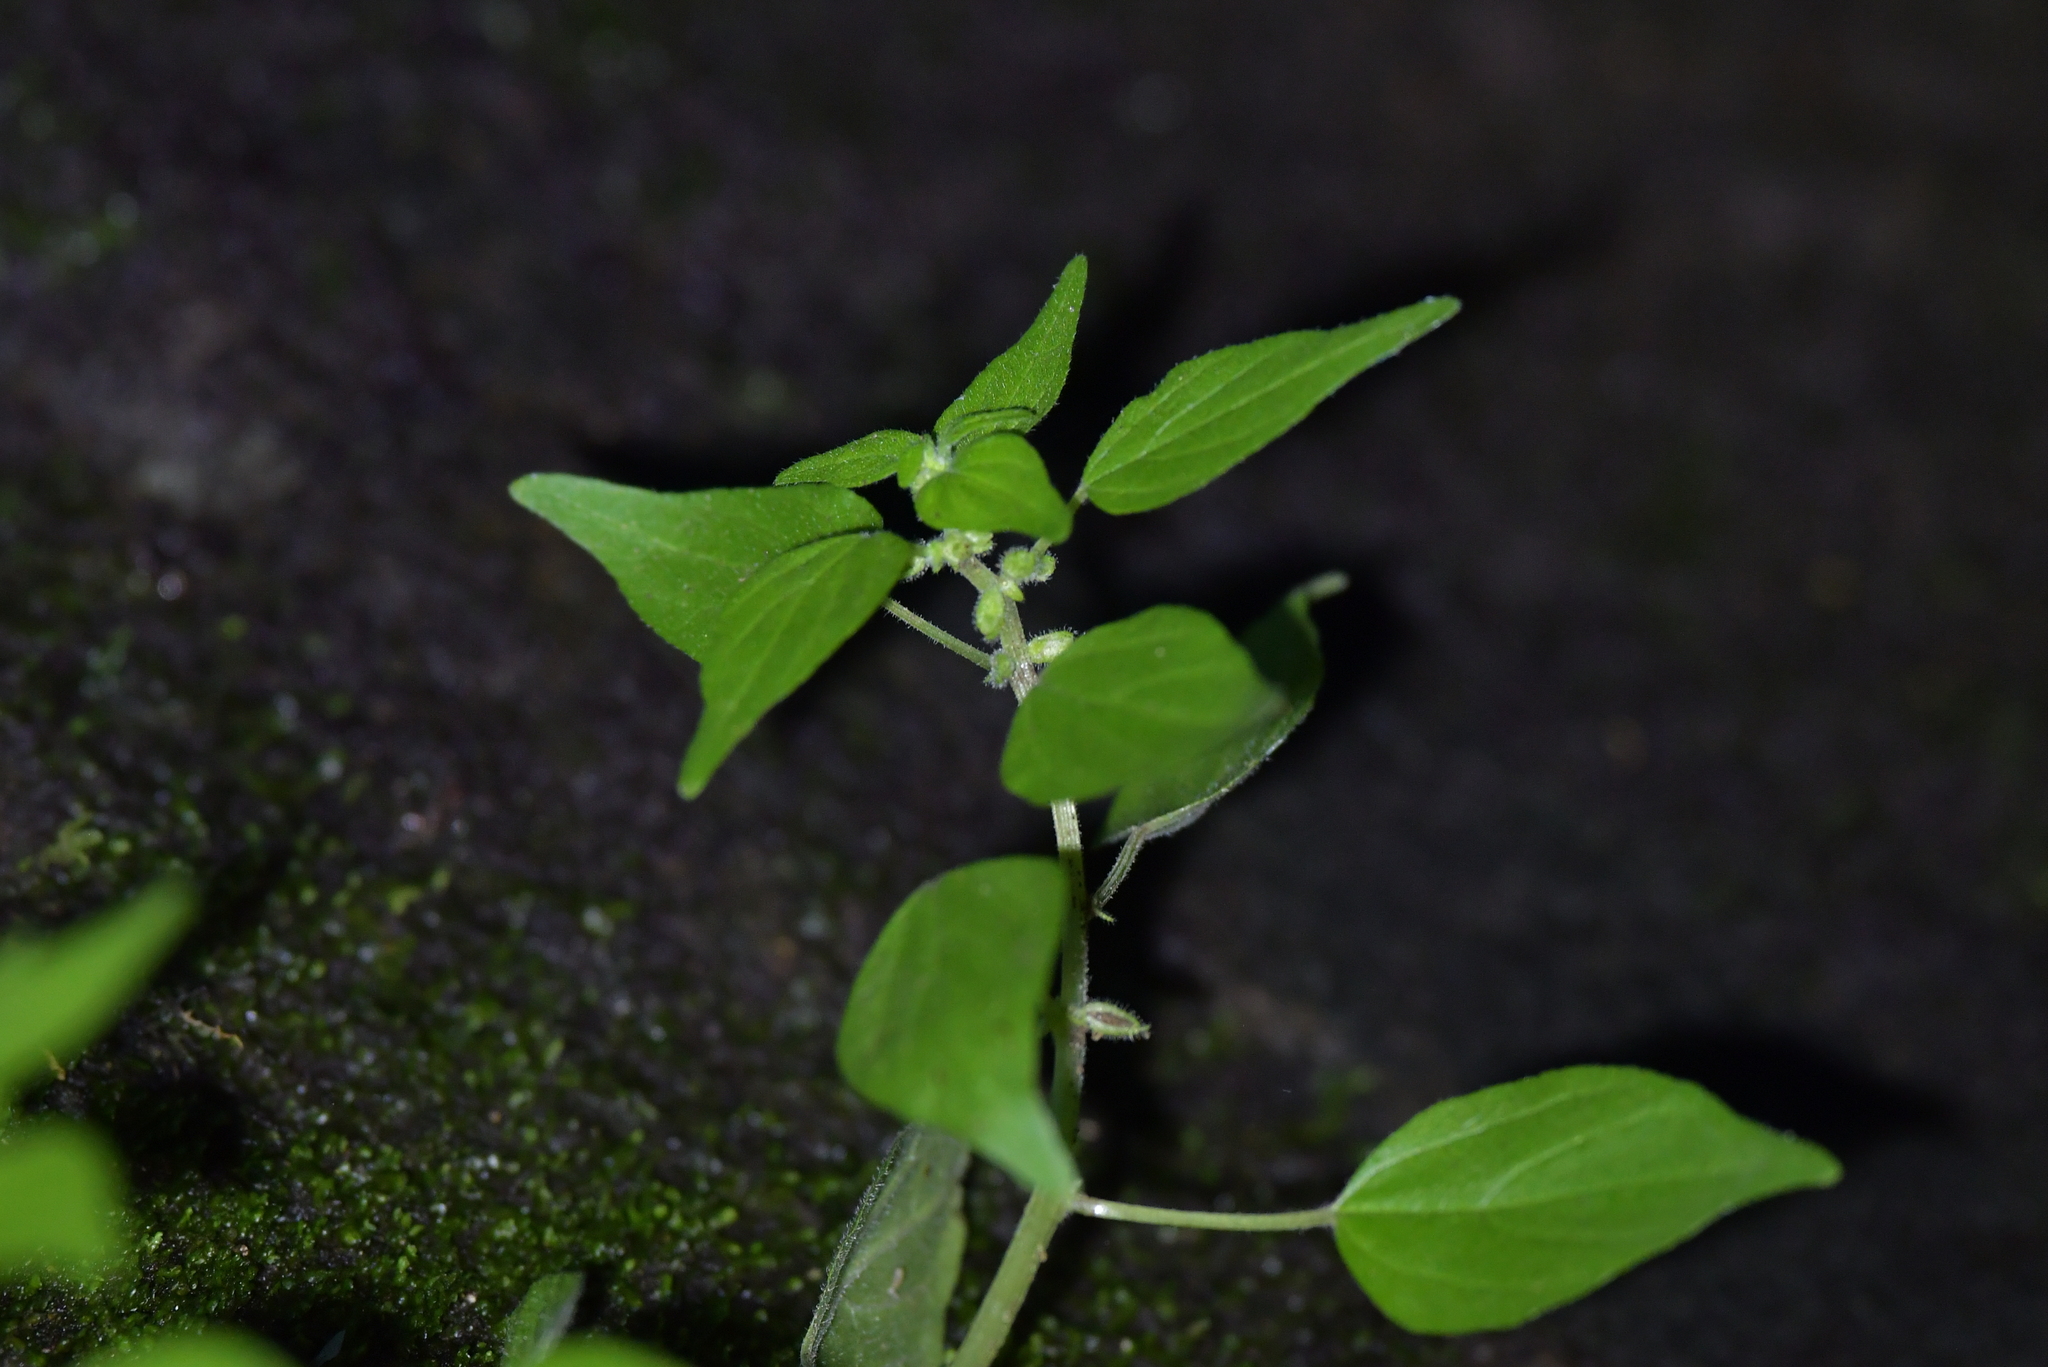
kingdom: Plantae
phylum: Tracheophyta
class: Magnoliopsida
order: Rosales
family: Urticaceae
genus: Parietaria
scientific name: Parietaria debilis
